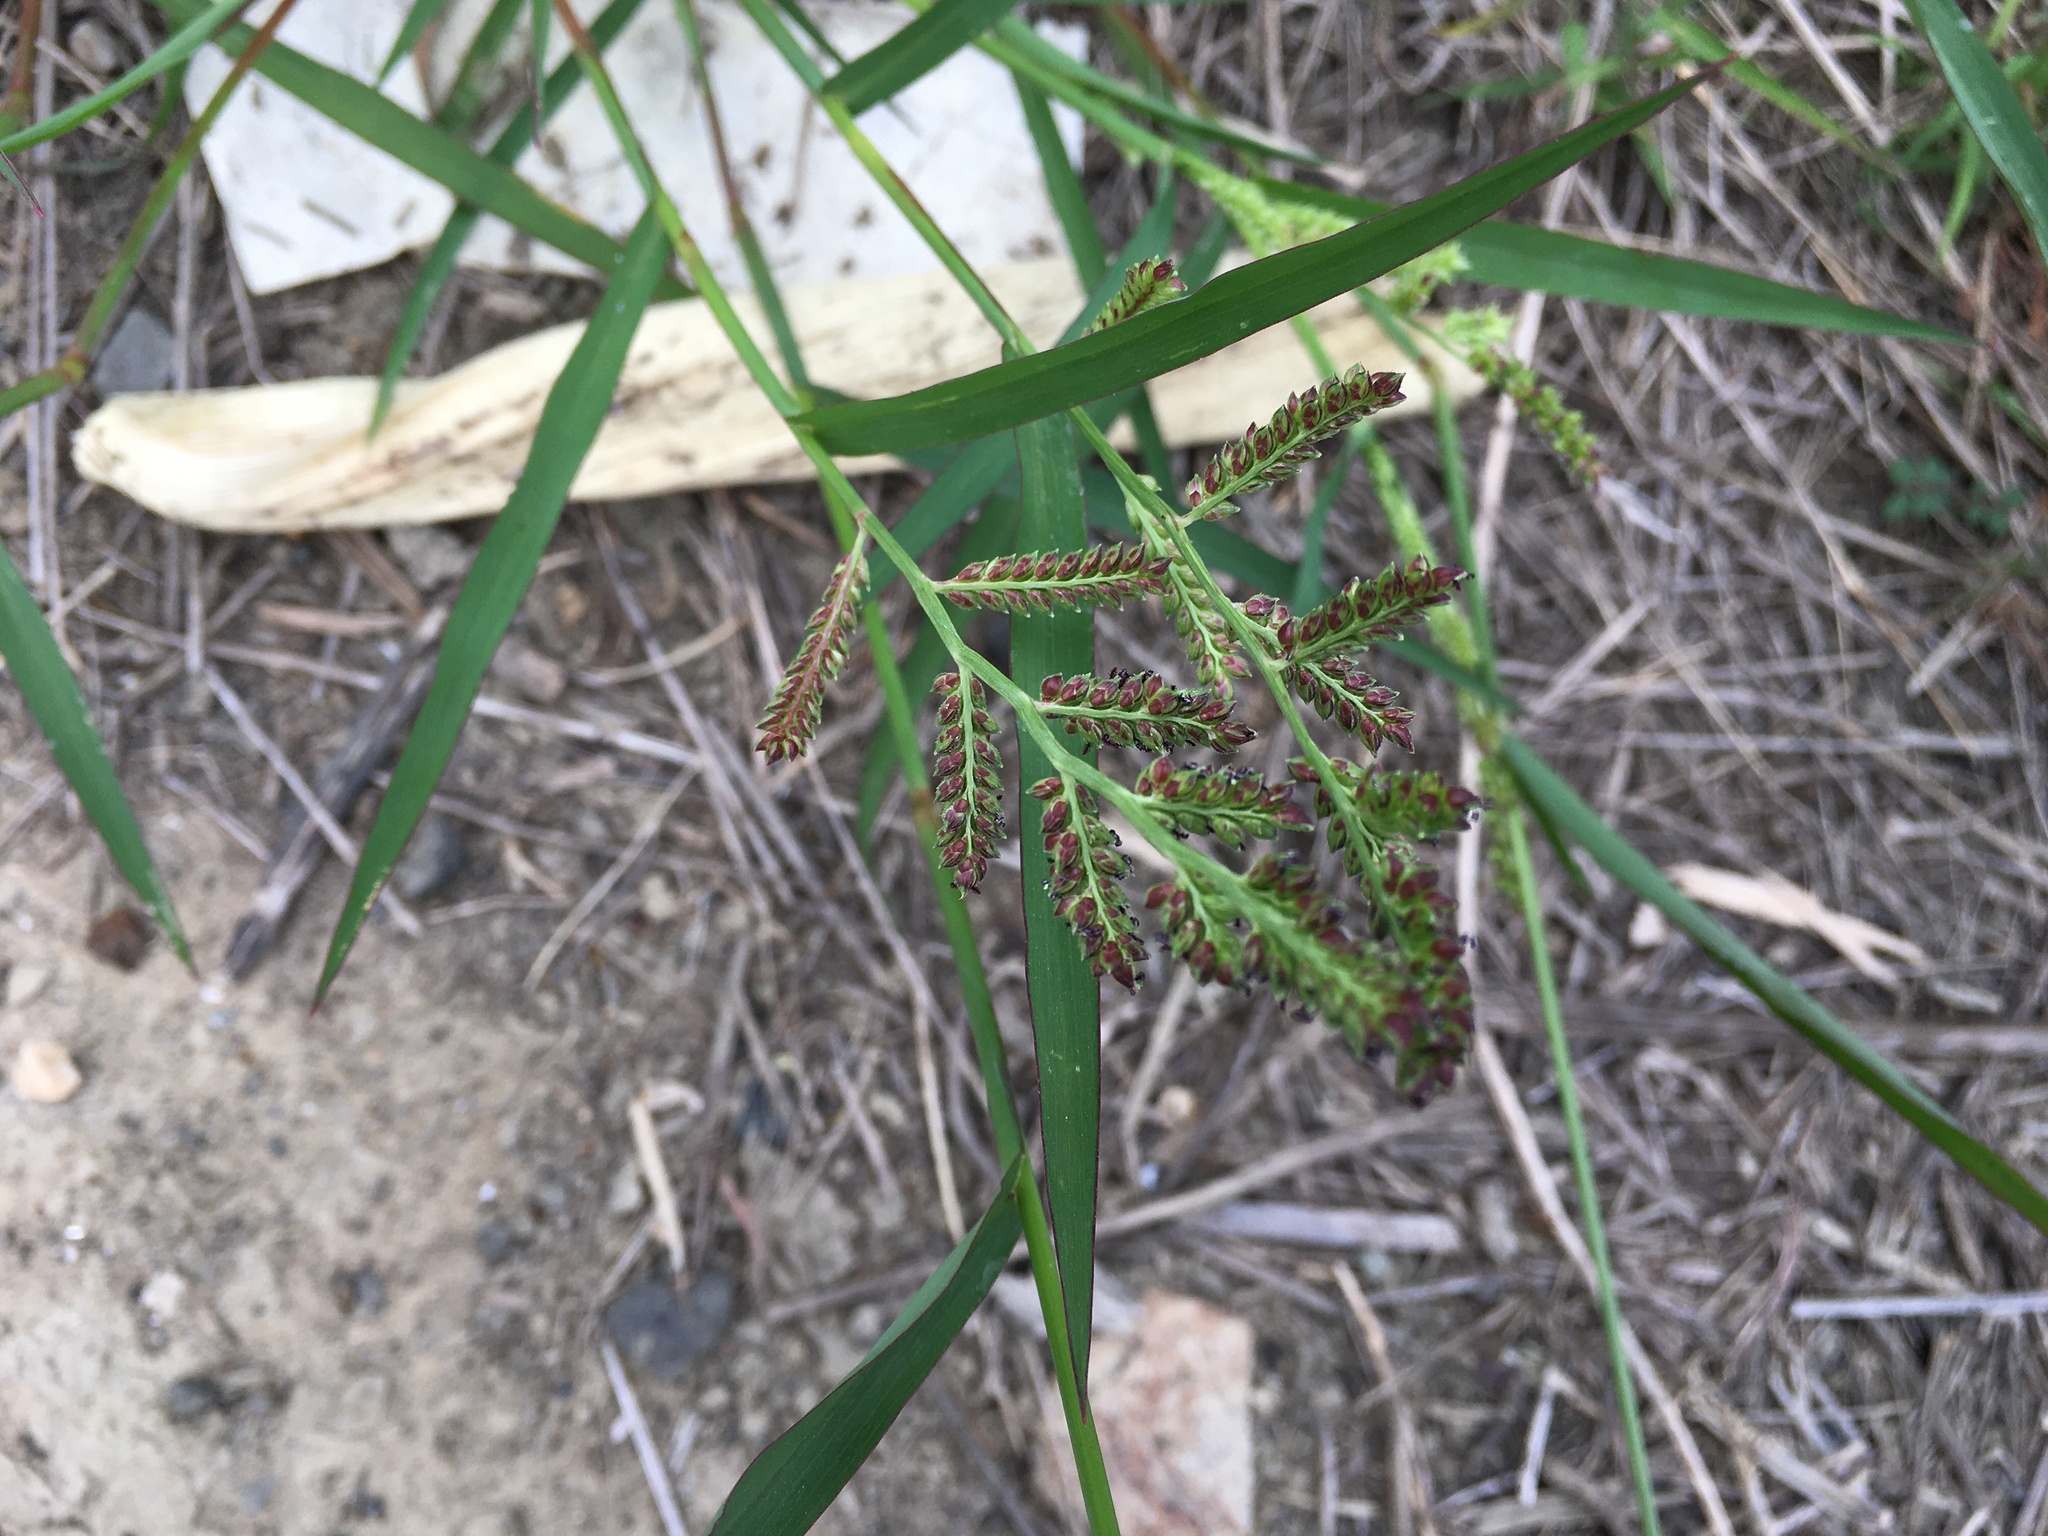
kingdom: Plantae
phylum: Tracheophyta
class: Liliopsida
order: Poales
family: Poaceae
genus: Echinochloa
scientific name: Echinochloa colonum
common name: Jungle rice
